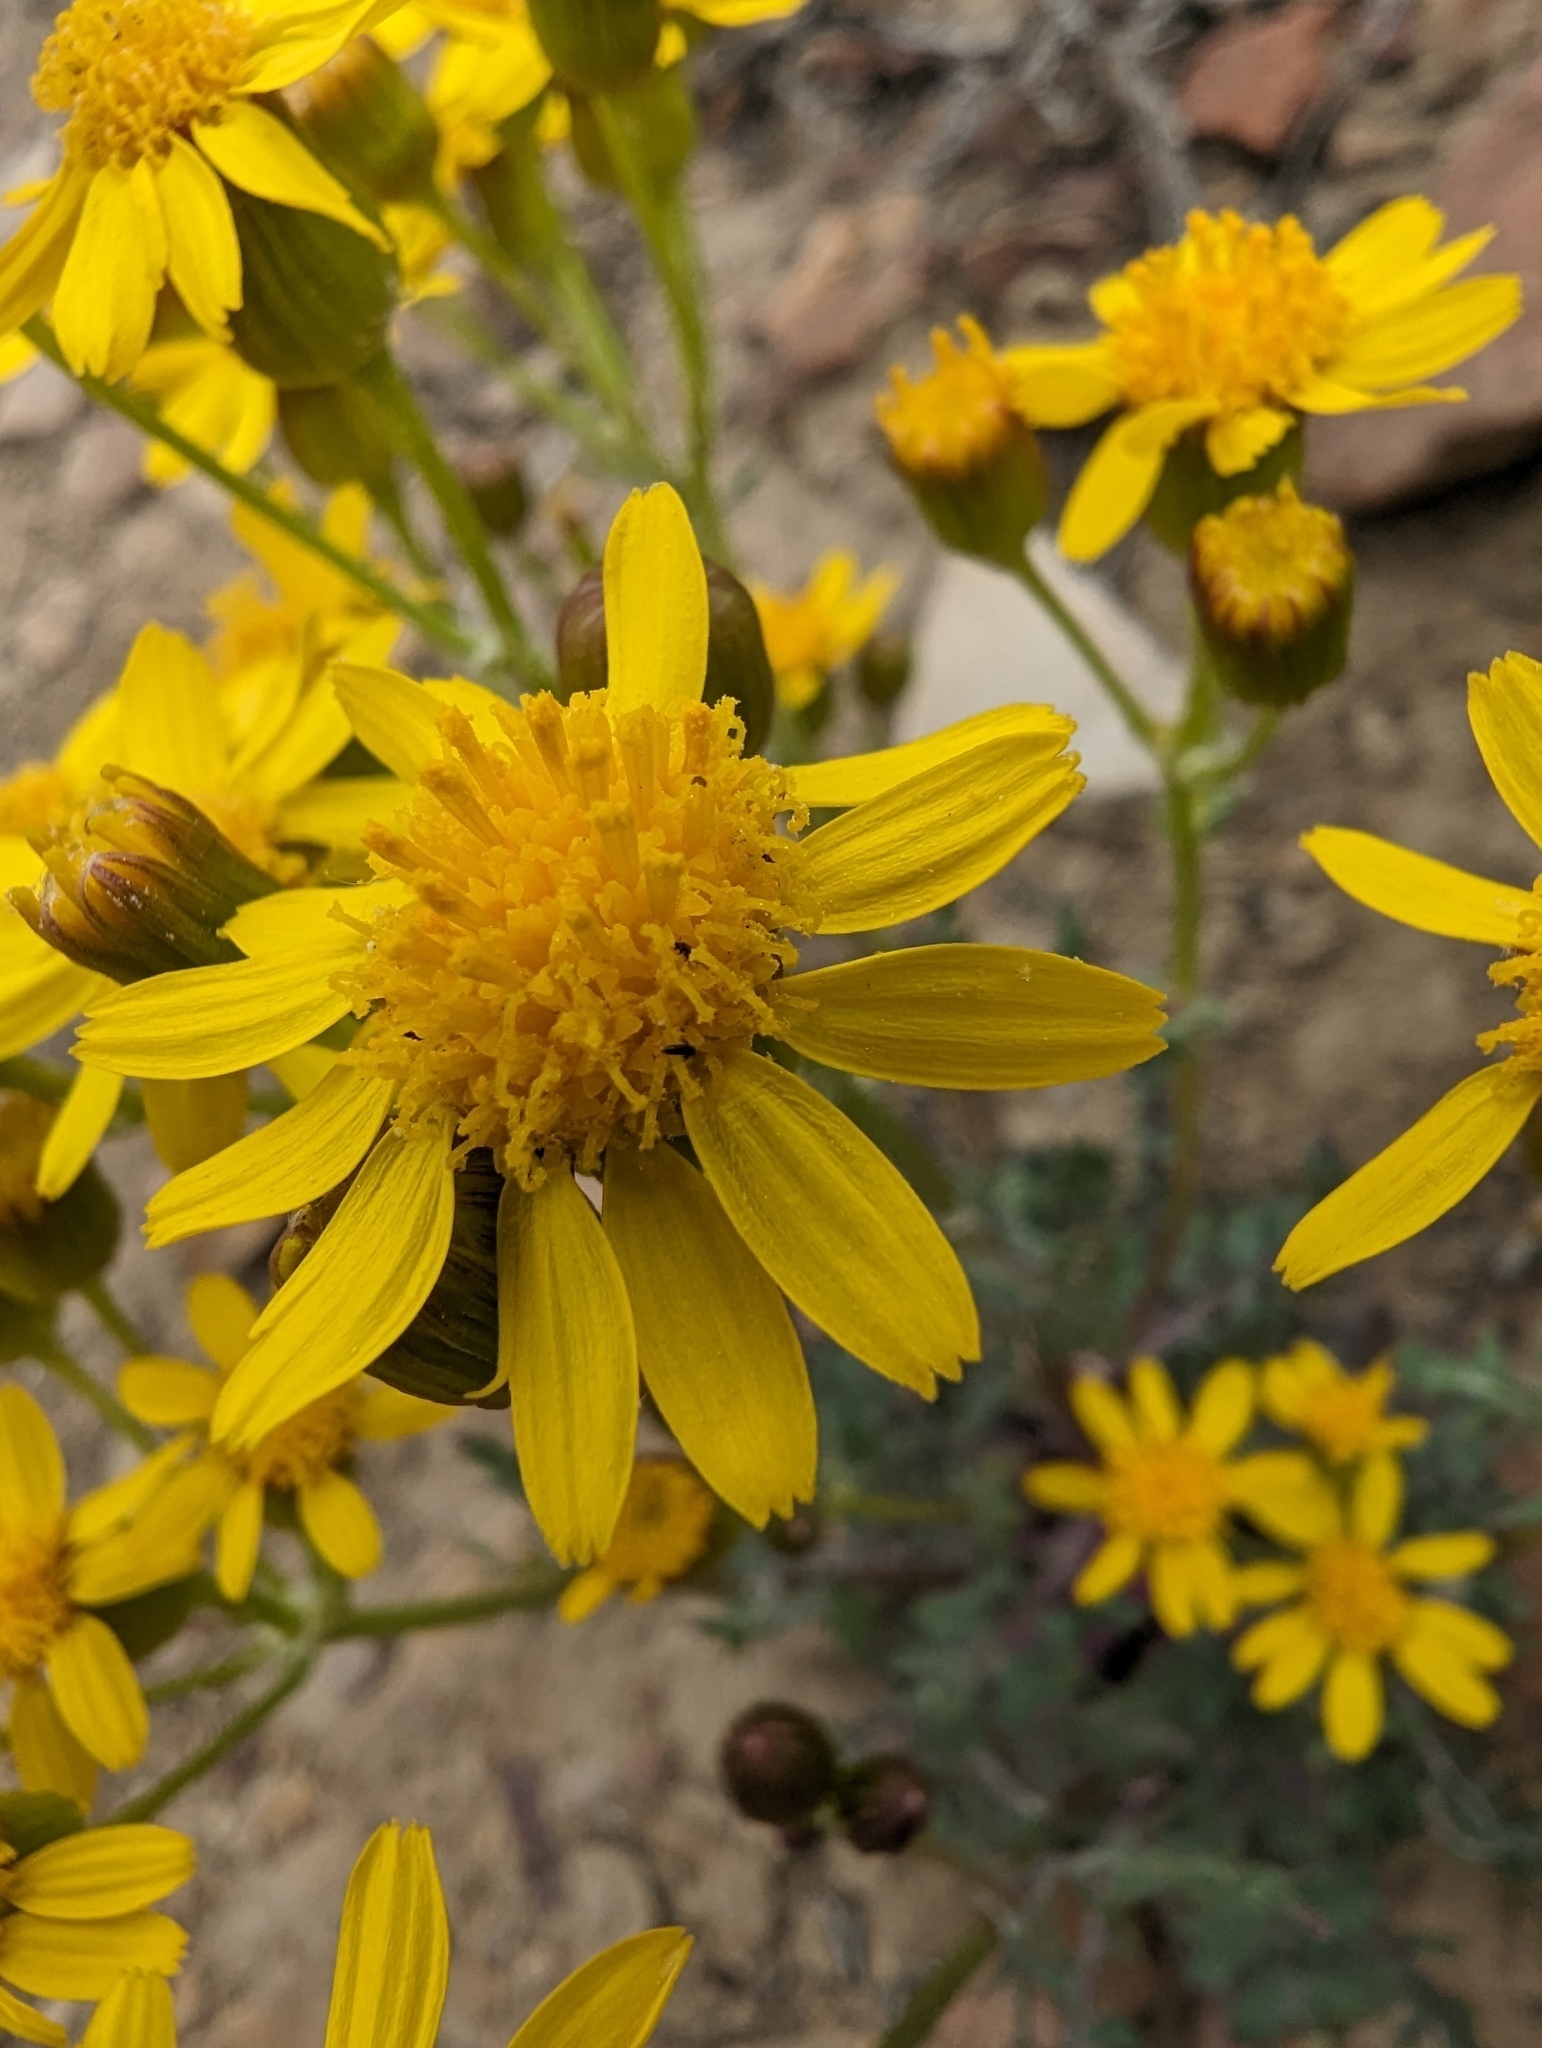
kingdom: Plantae
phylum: Tracheophyta
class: Magnoliopsida
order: Asterales
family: Asteraceae
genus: Packera
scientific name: Packera multilobata
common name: Lobe-leaf groundsel
